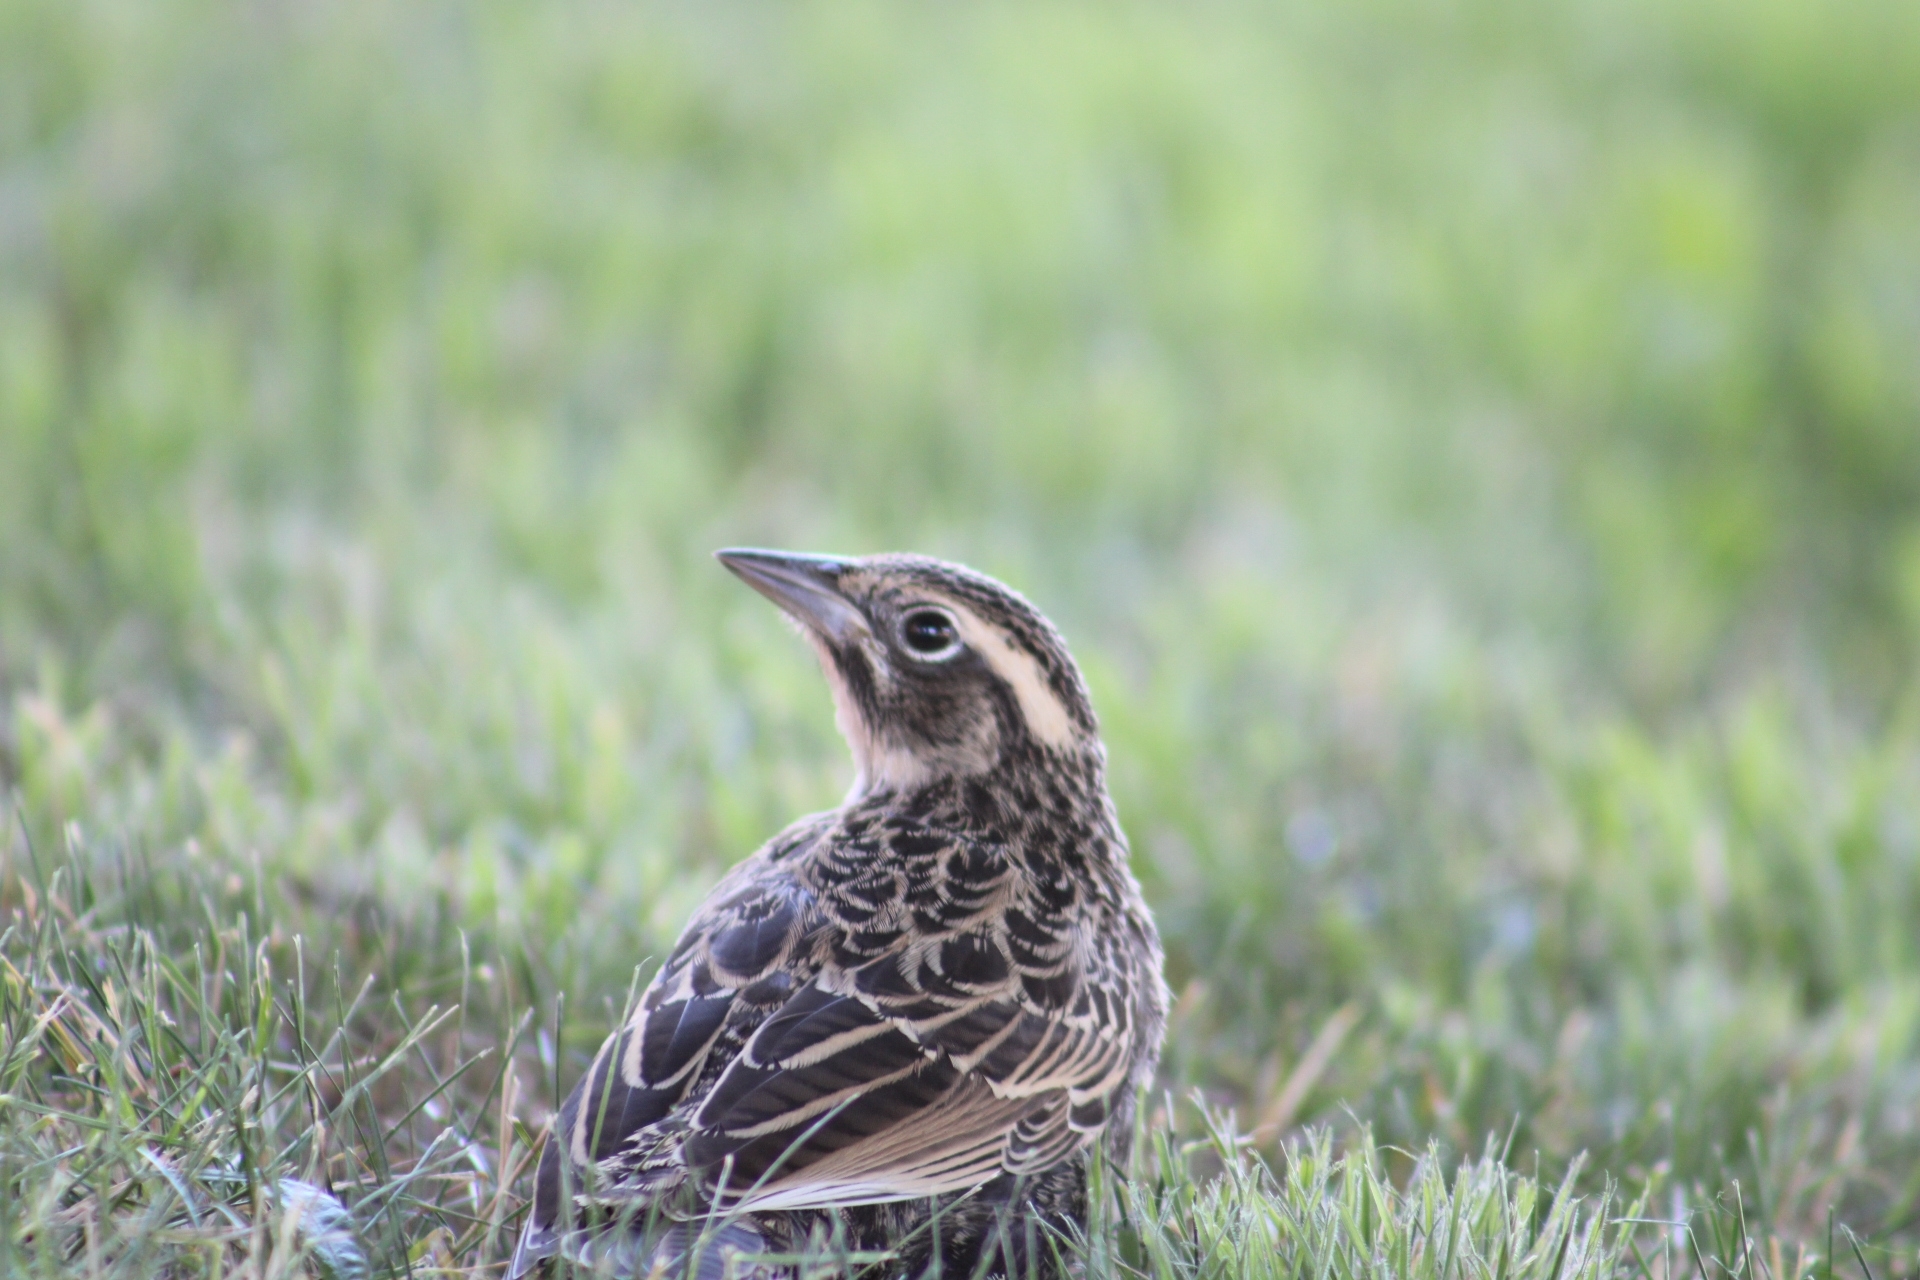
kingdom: Animalia
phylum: Chordata
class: Aves
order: Passeriformes
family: Icteridae
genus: Sturnella
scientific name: Sturnella loyca
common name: Long-tailed meadowlark
